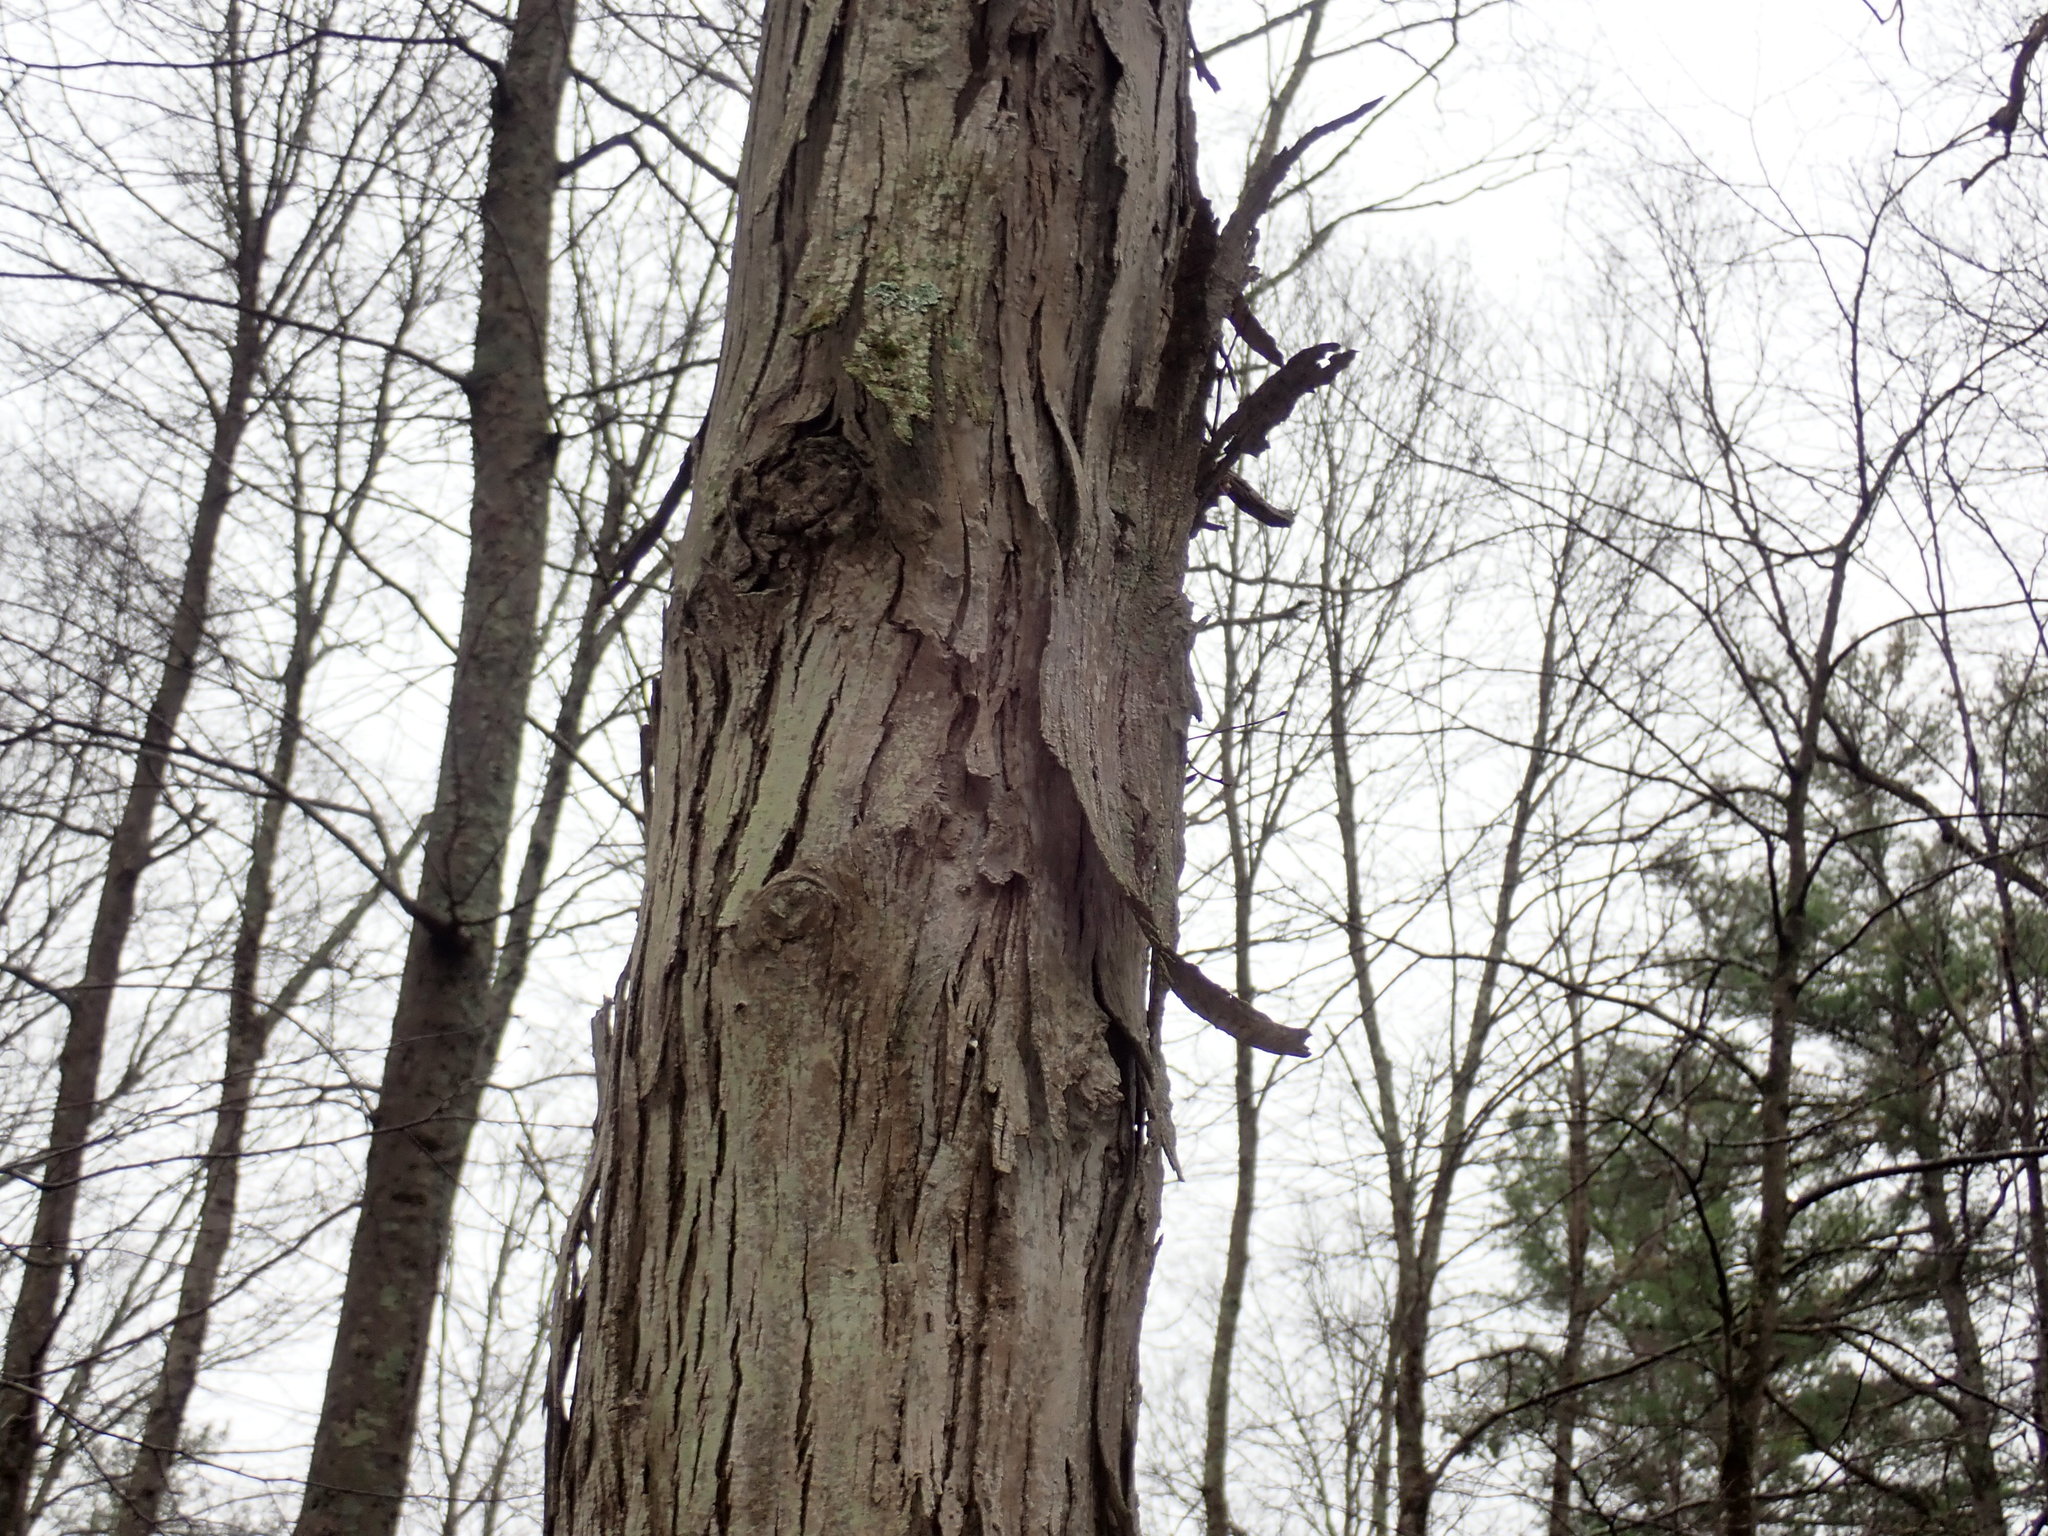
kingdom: Plantae
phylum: Tracheophyta
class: Magnoliopsida
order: Fagales
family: Juglandaceae
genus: Carya
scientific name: Carya ovata
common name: Shagbark hickory
